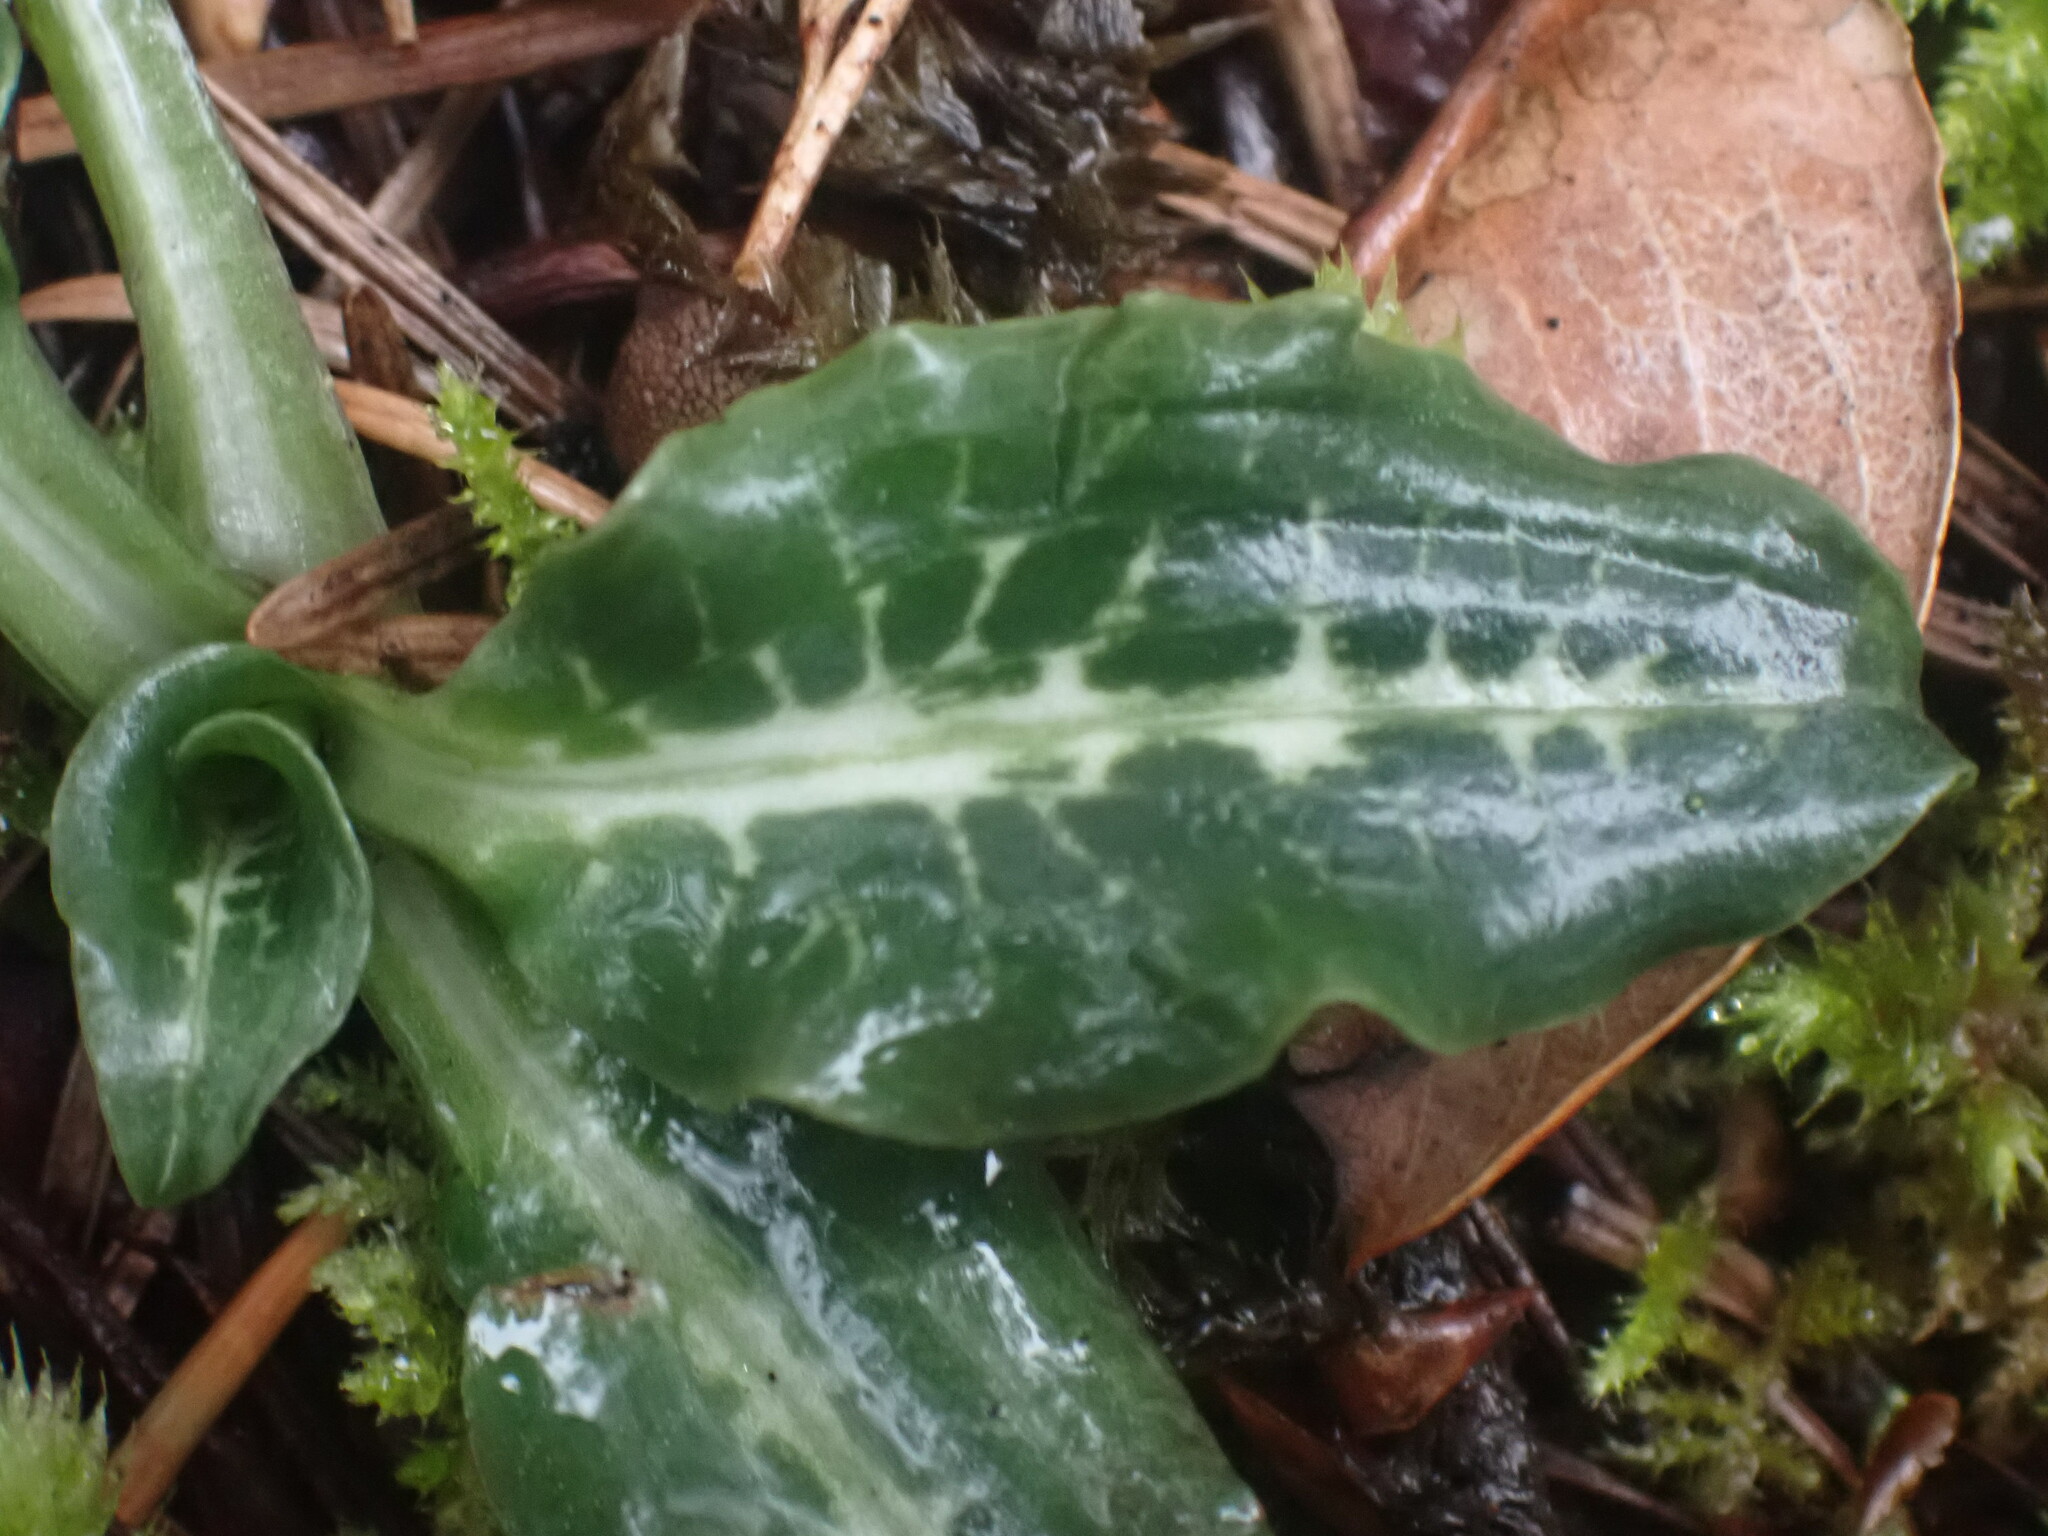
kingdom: Plantae
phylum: Tracheophyta
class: Liliopsida
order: Asparagales
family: Orchidaceae
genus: Goodyera
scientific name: Goodyera oblongifolia
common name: Giant rattlesnake-plantain
